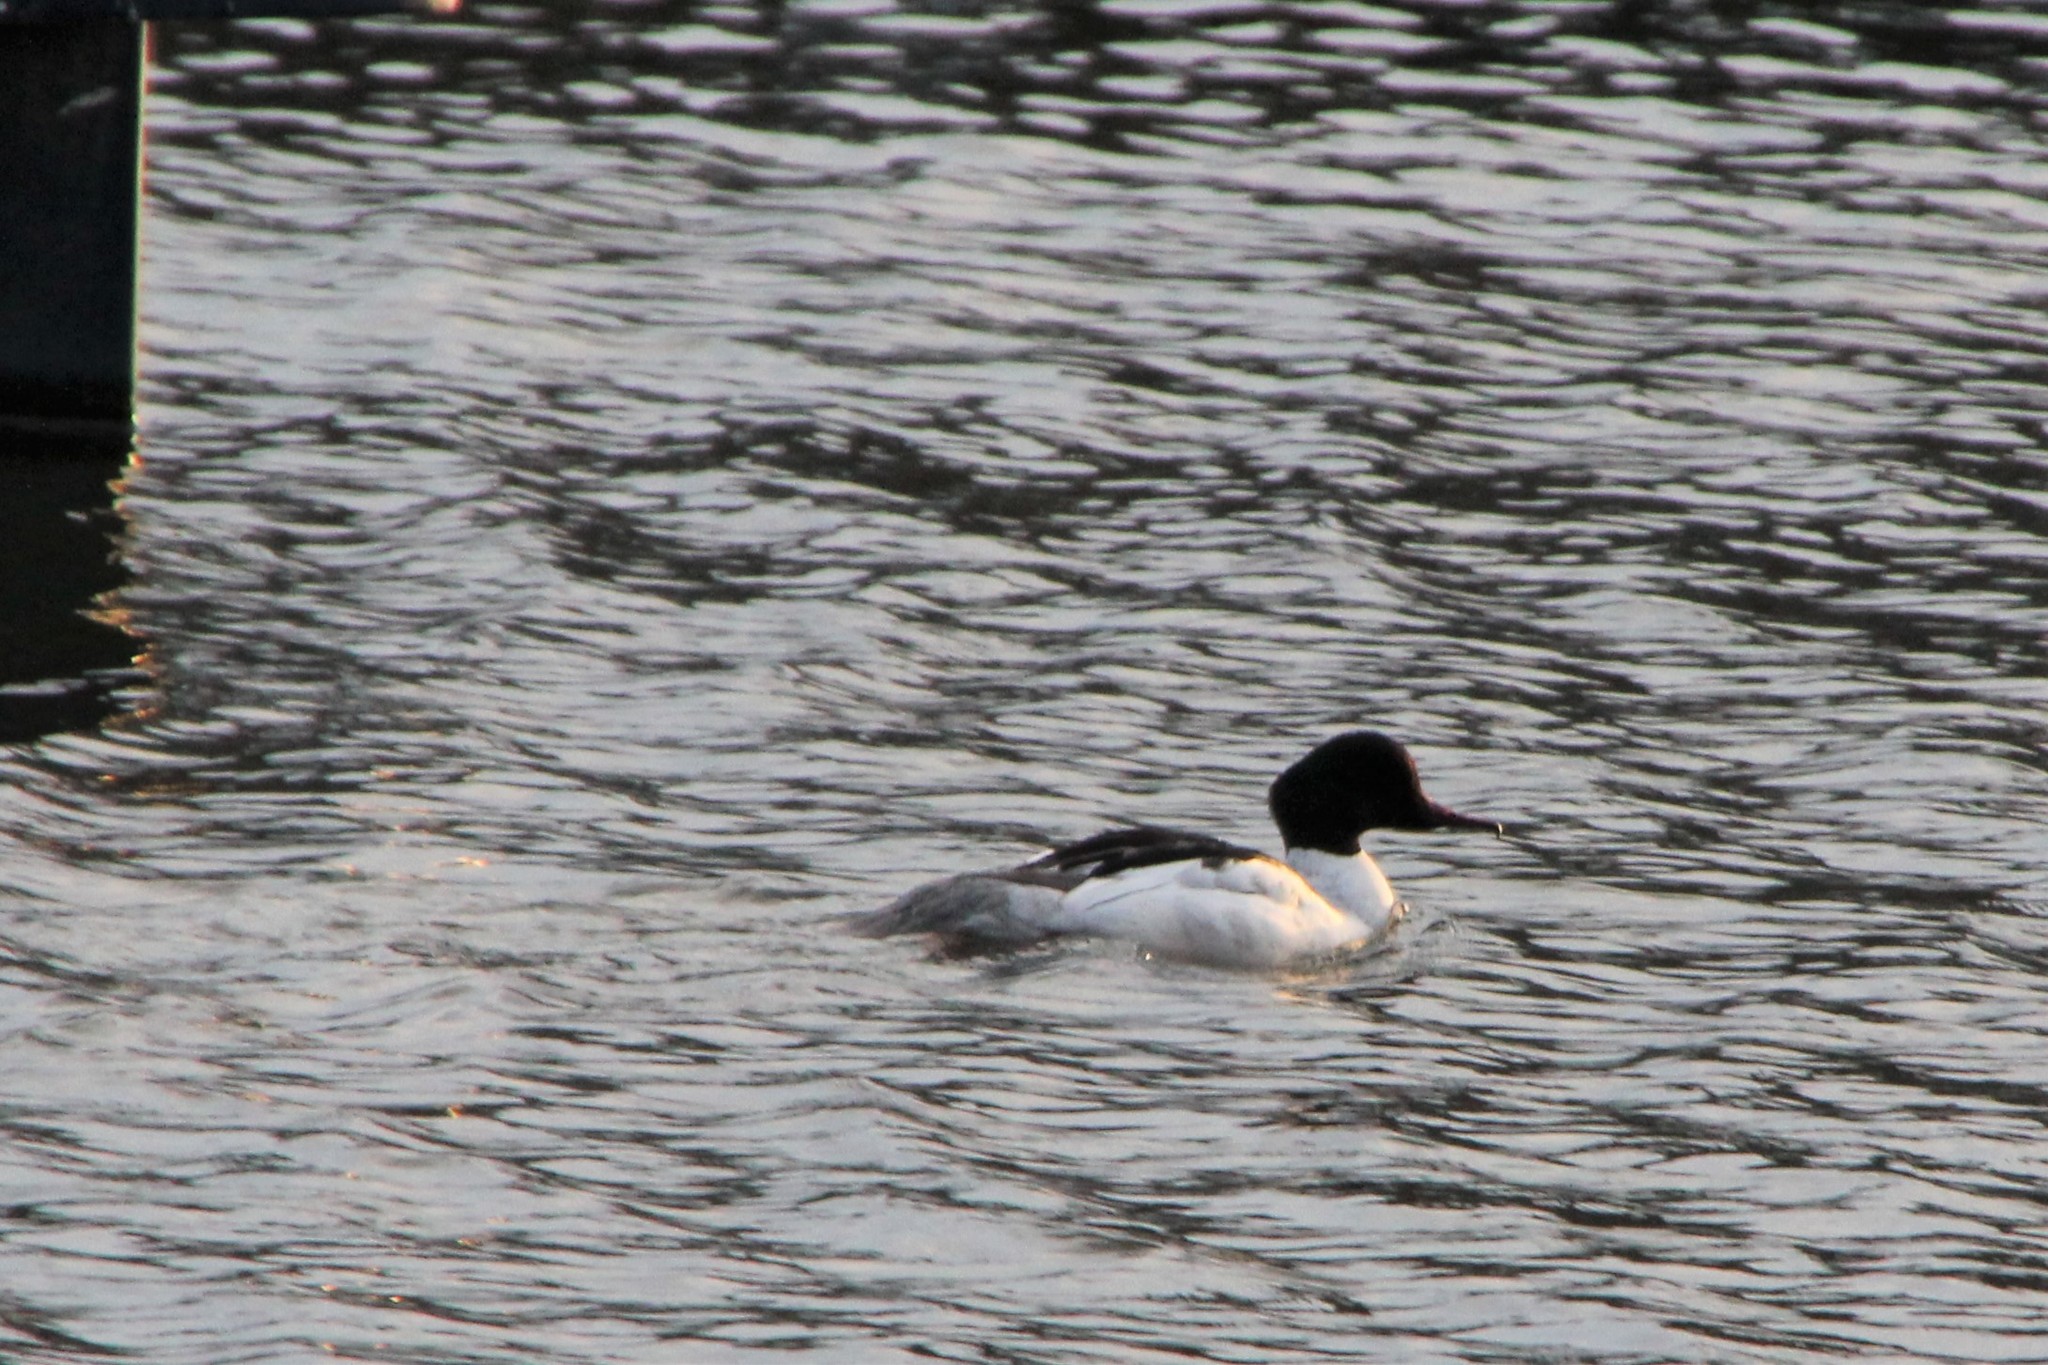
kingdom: Animalia
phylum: Chordata
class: Aves
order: Anseriformes
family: Anatidae
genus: Mergus
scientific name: Mergus merganser
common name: Common merganser
